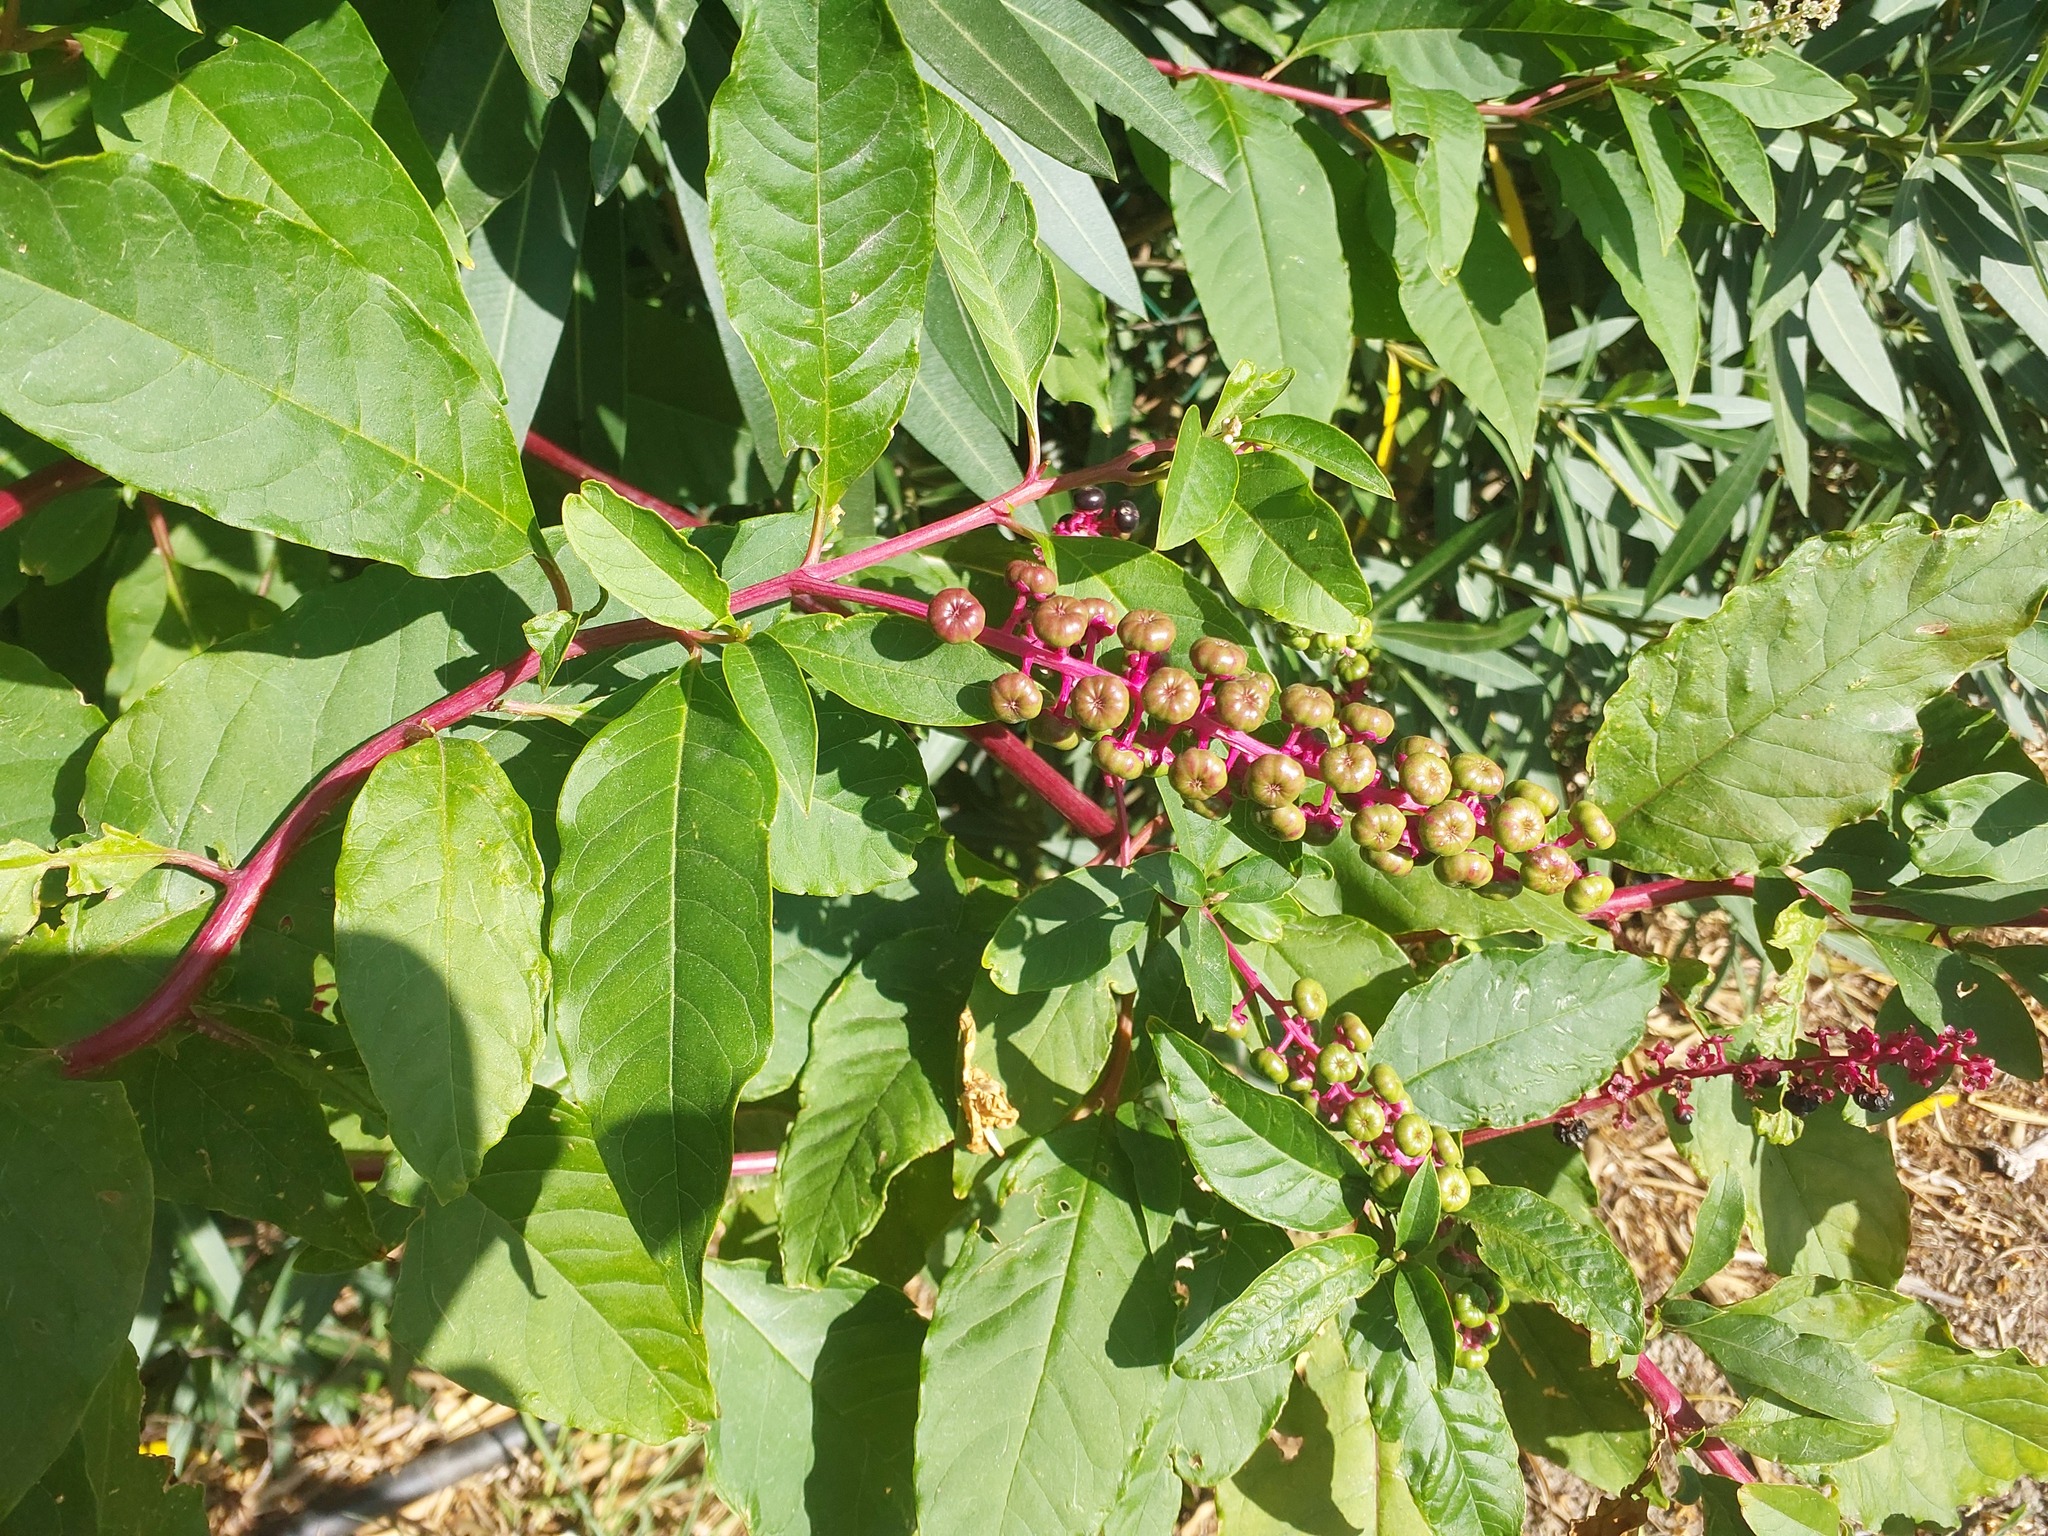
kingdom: Plantae
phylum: Tracheophyta
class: Magnoliopsida
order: Caryophyllales
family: Phytolaccaceae
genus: Phytolacca
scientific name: Phytolacca americana
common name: American pokeweed
